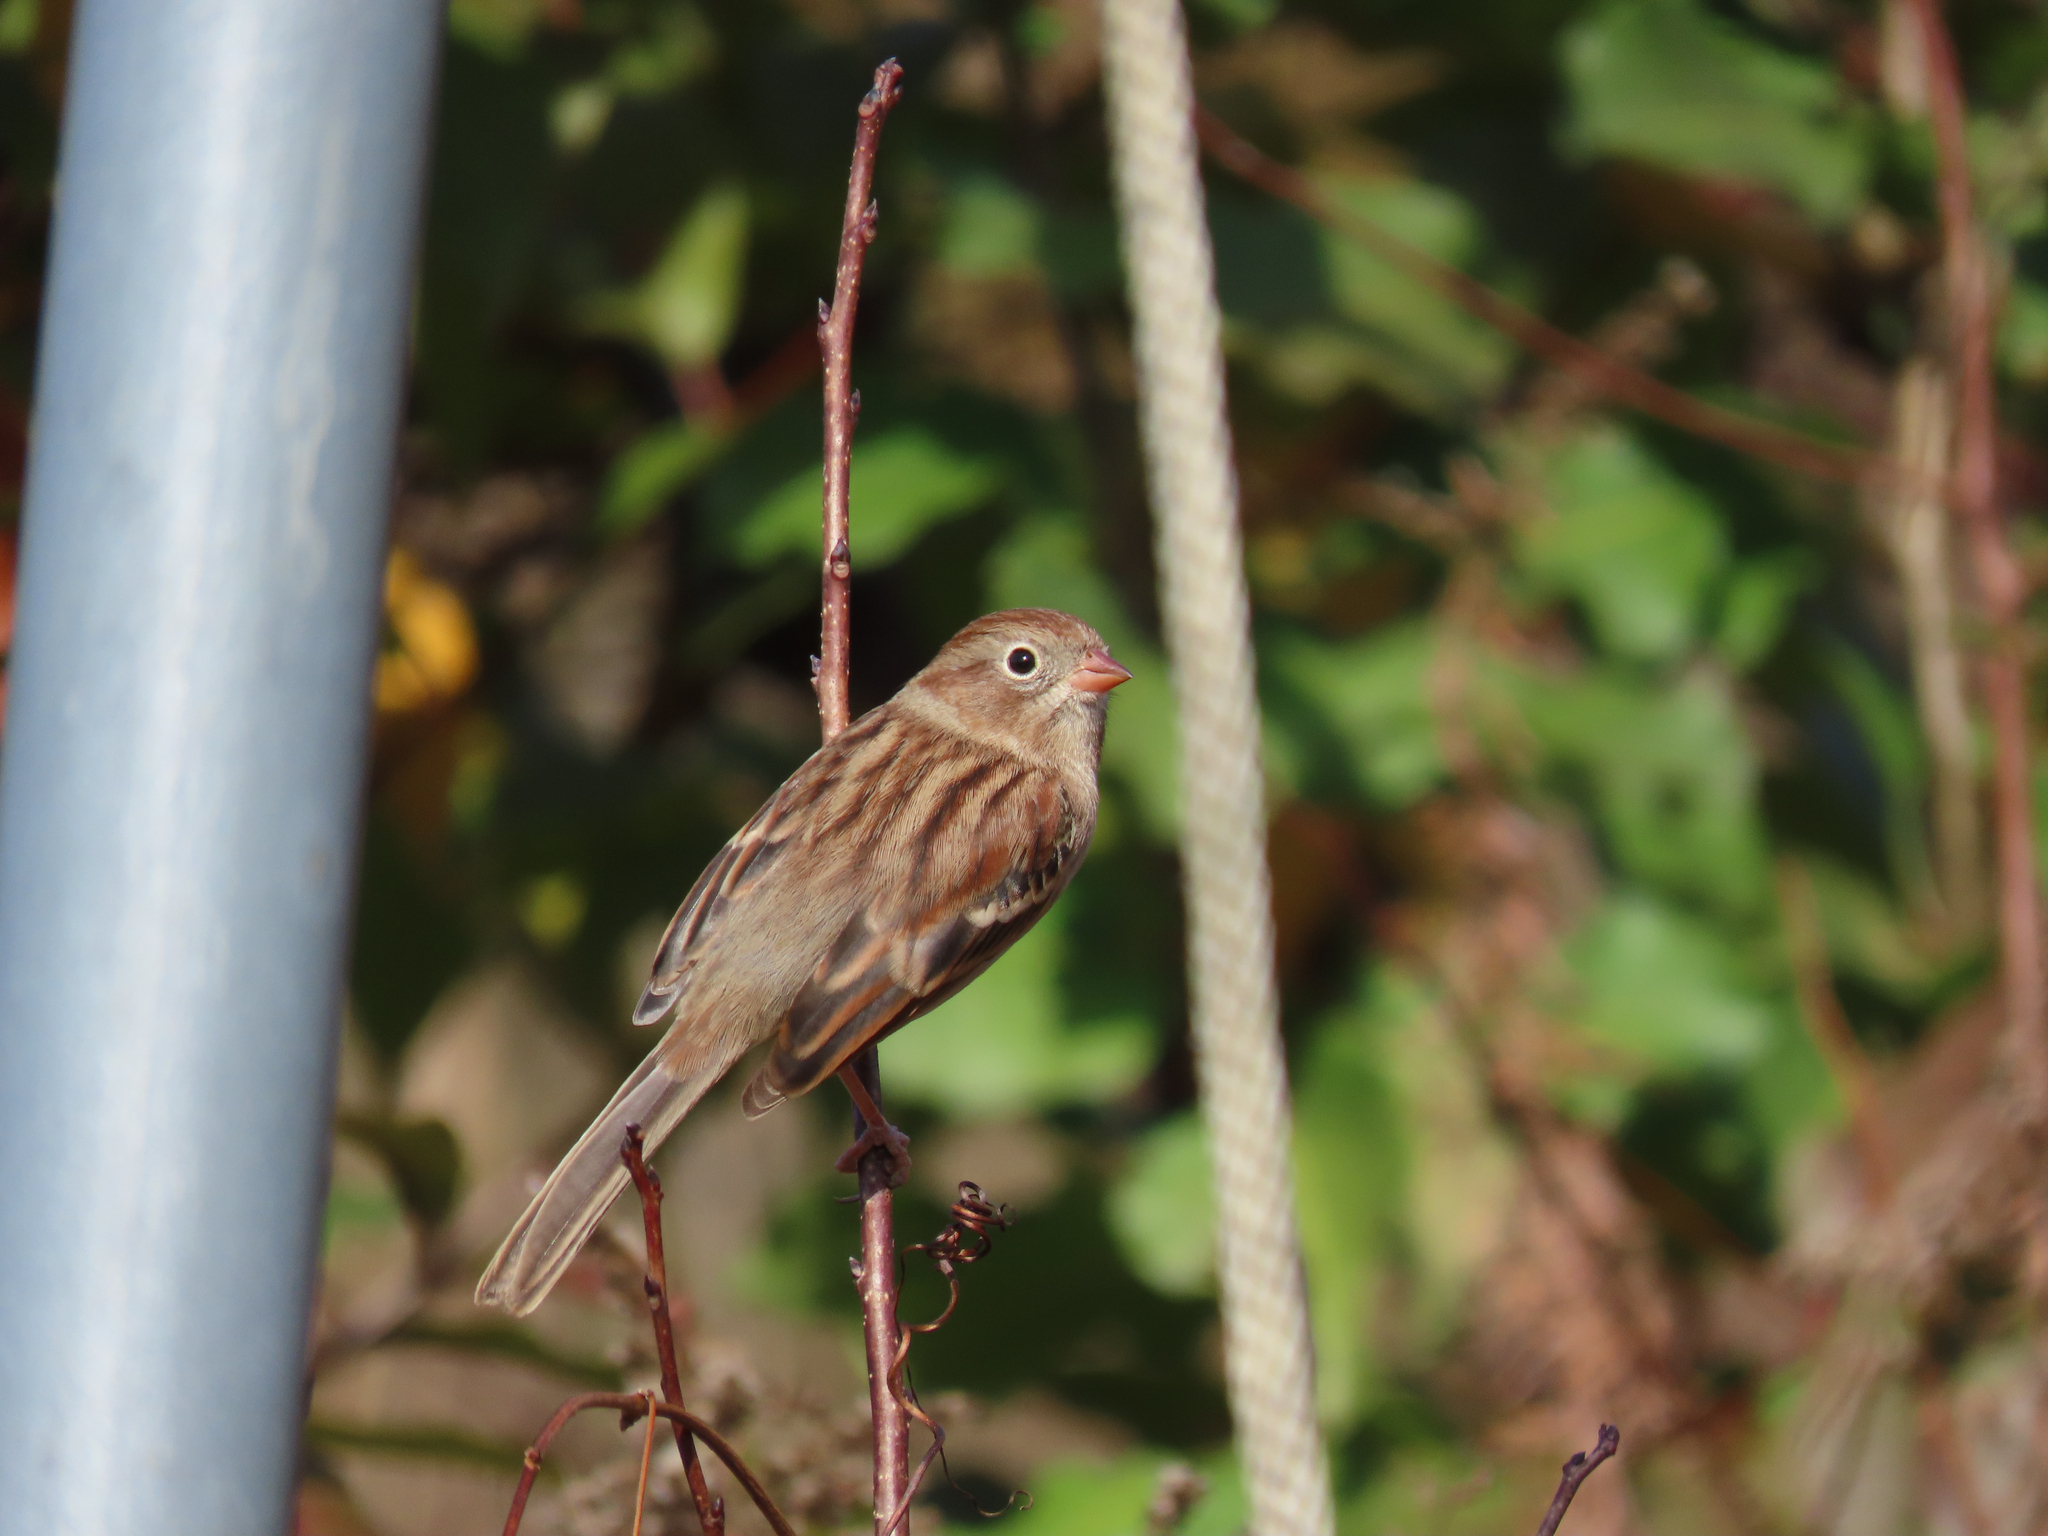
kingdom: Animalia
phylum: Chordata
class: Aves
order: Passeriformes
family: Passerellidae
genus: Spizella
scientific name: Spizella pusilla
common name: Field sparrow
